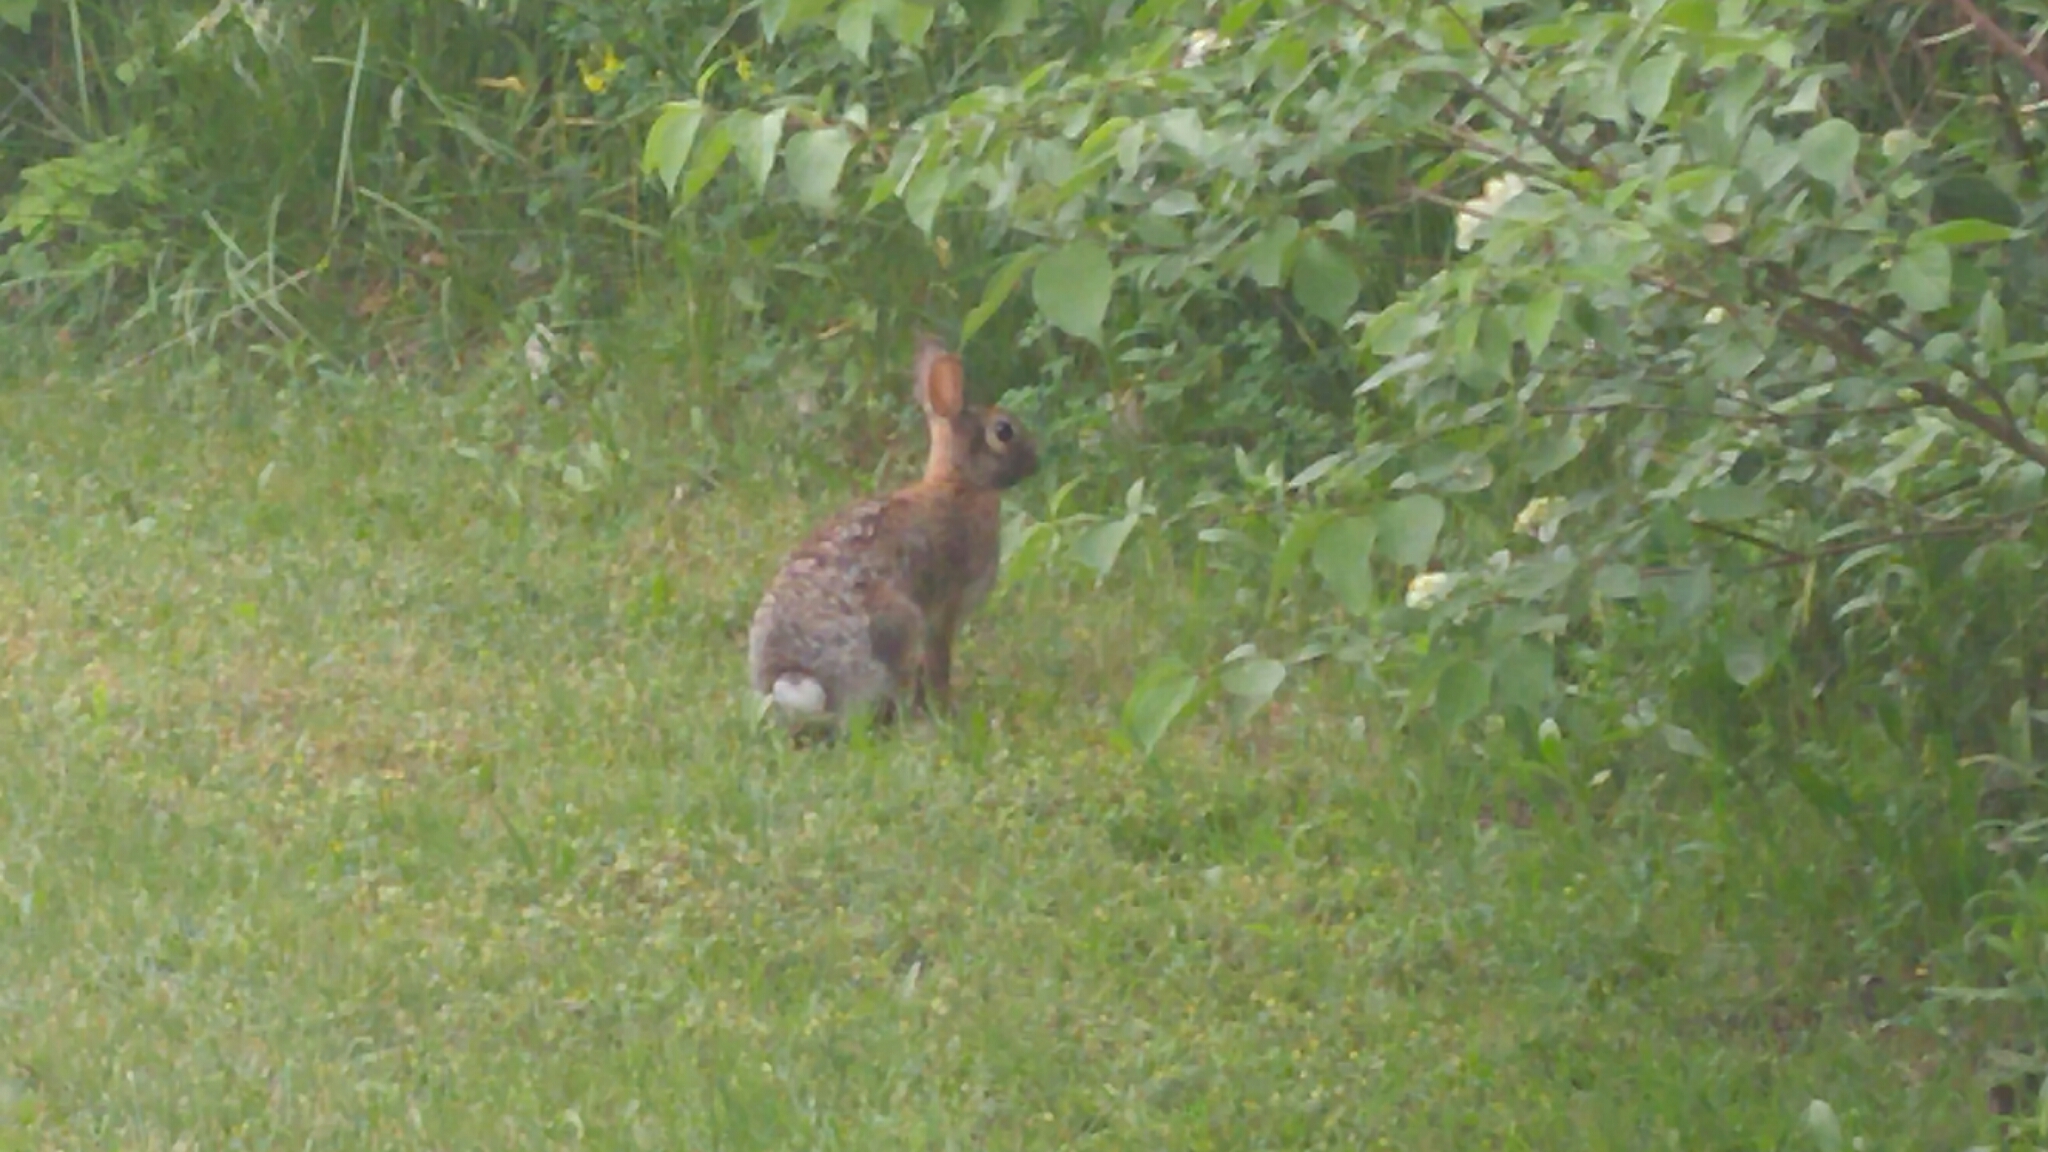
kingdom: Animalia
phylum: Chordata
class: Mammalia
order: Lagomorpha
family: Leporidae
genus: Sylvilagus
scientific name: Sylvilagus floridanus
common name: Eastern cottontail
